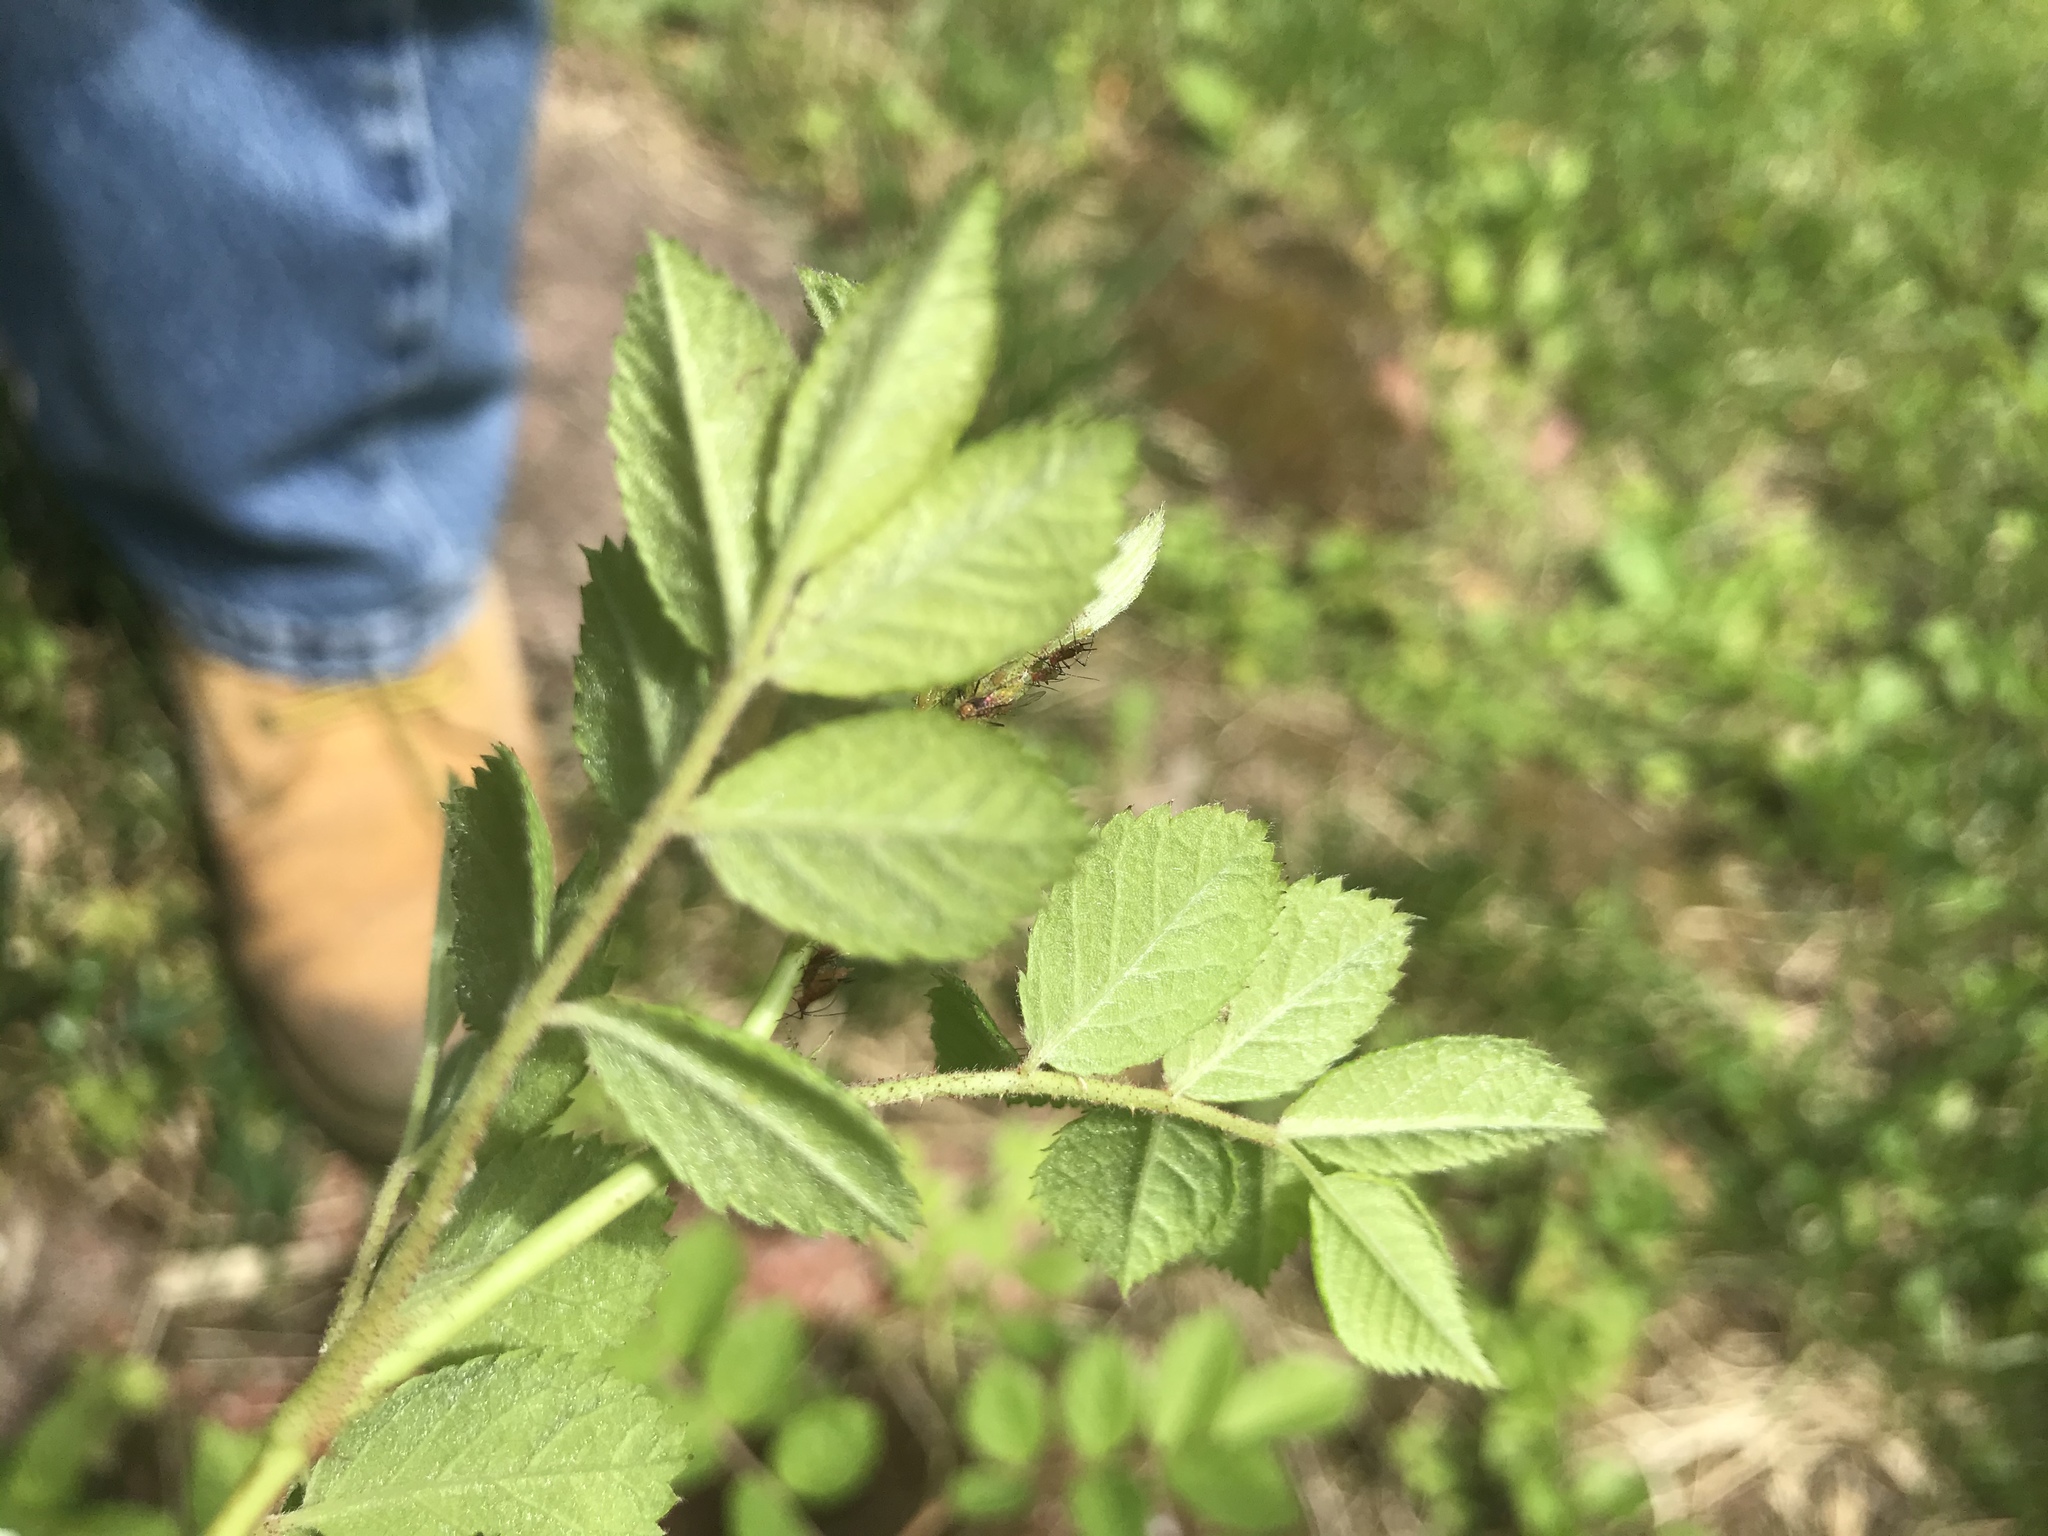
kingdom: Plantae
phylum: Tracheophyta
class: Magnoliopsida
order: Rosales
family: Rosaceae
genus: Rosa
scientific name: Rosa multiflora
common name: Multiflora rose
